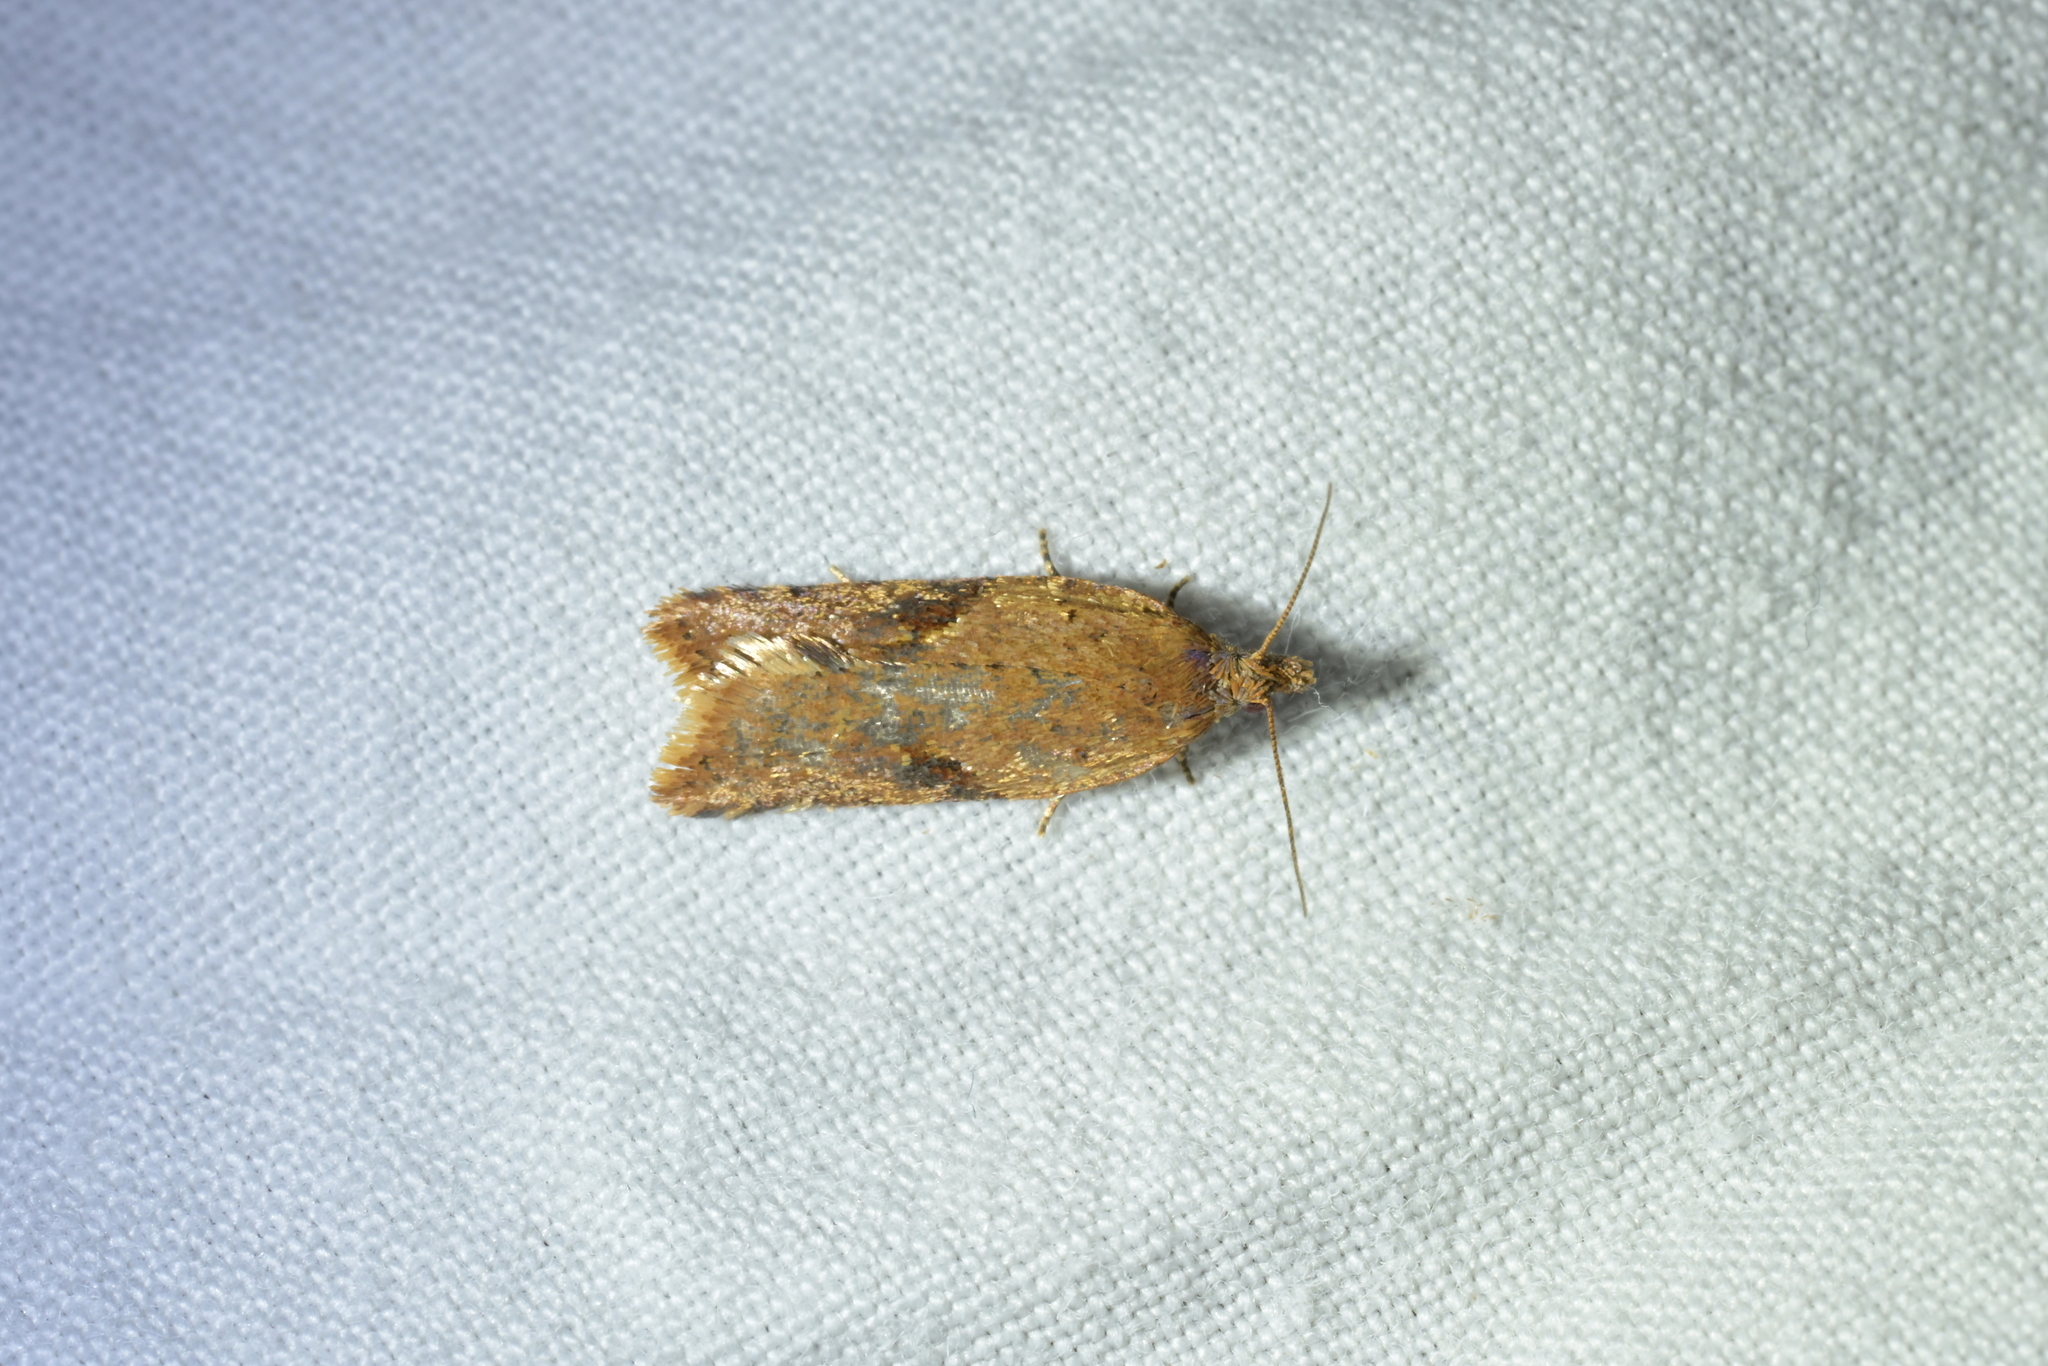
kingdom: Animalia
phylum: Arthropoda
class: Insecta
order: Lepidoptera
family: Tortricidae
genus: Capua
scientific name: Capua semiferana
